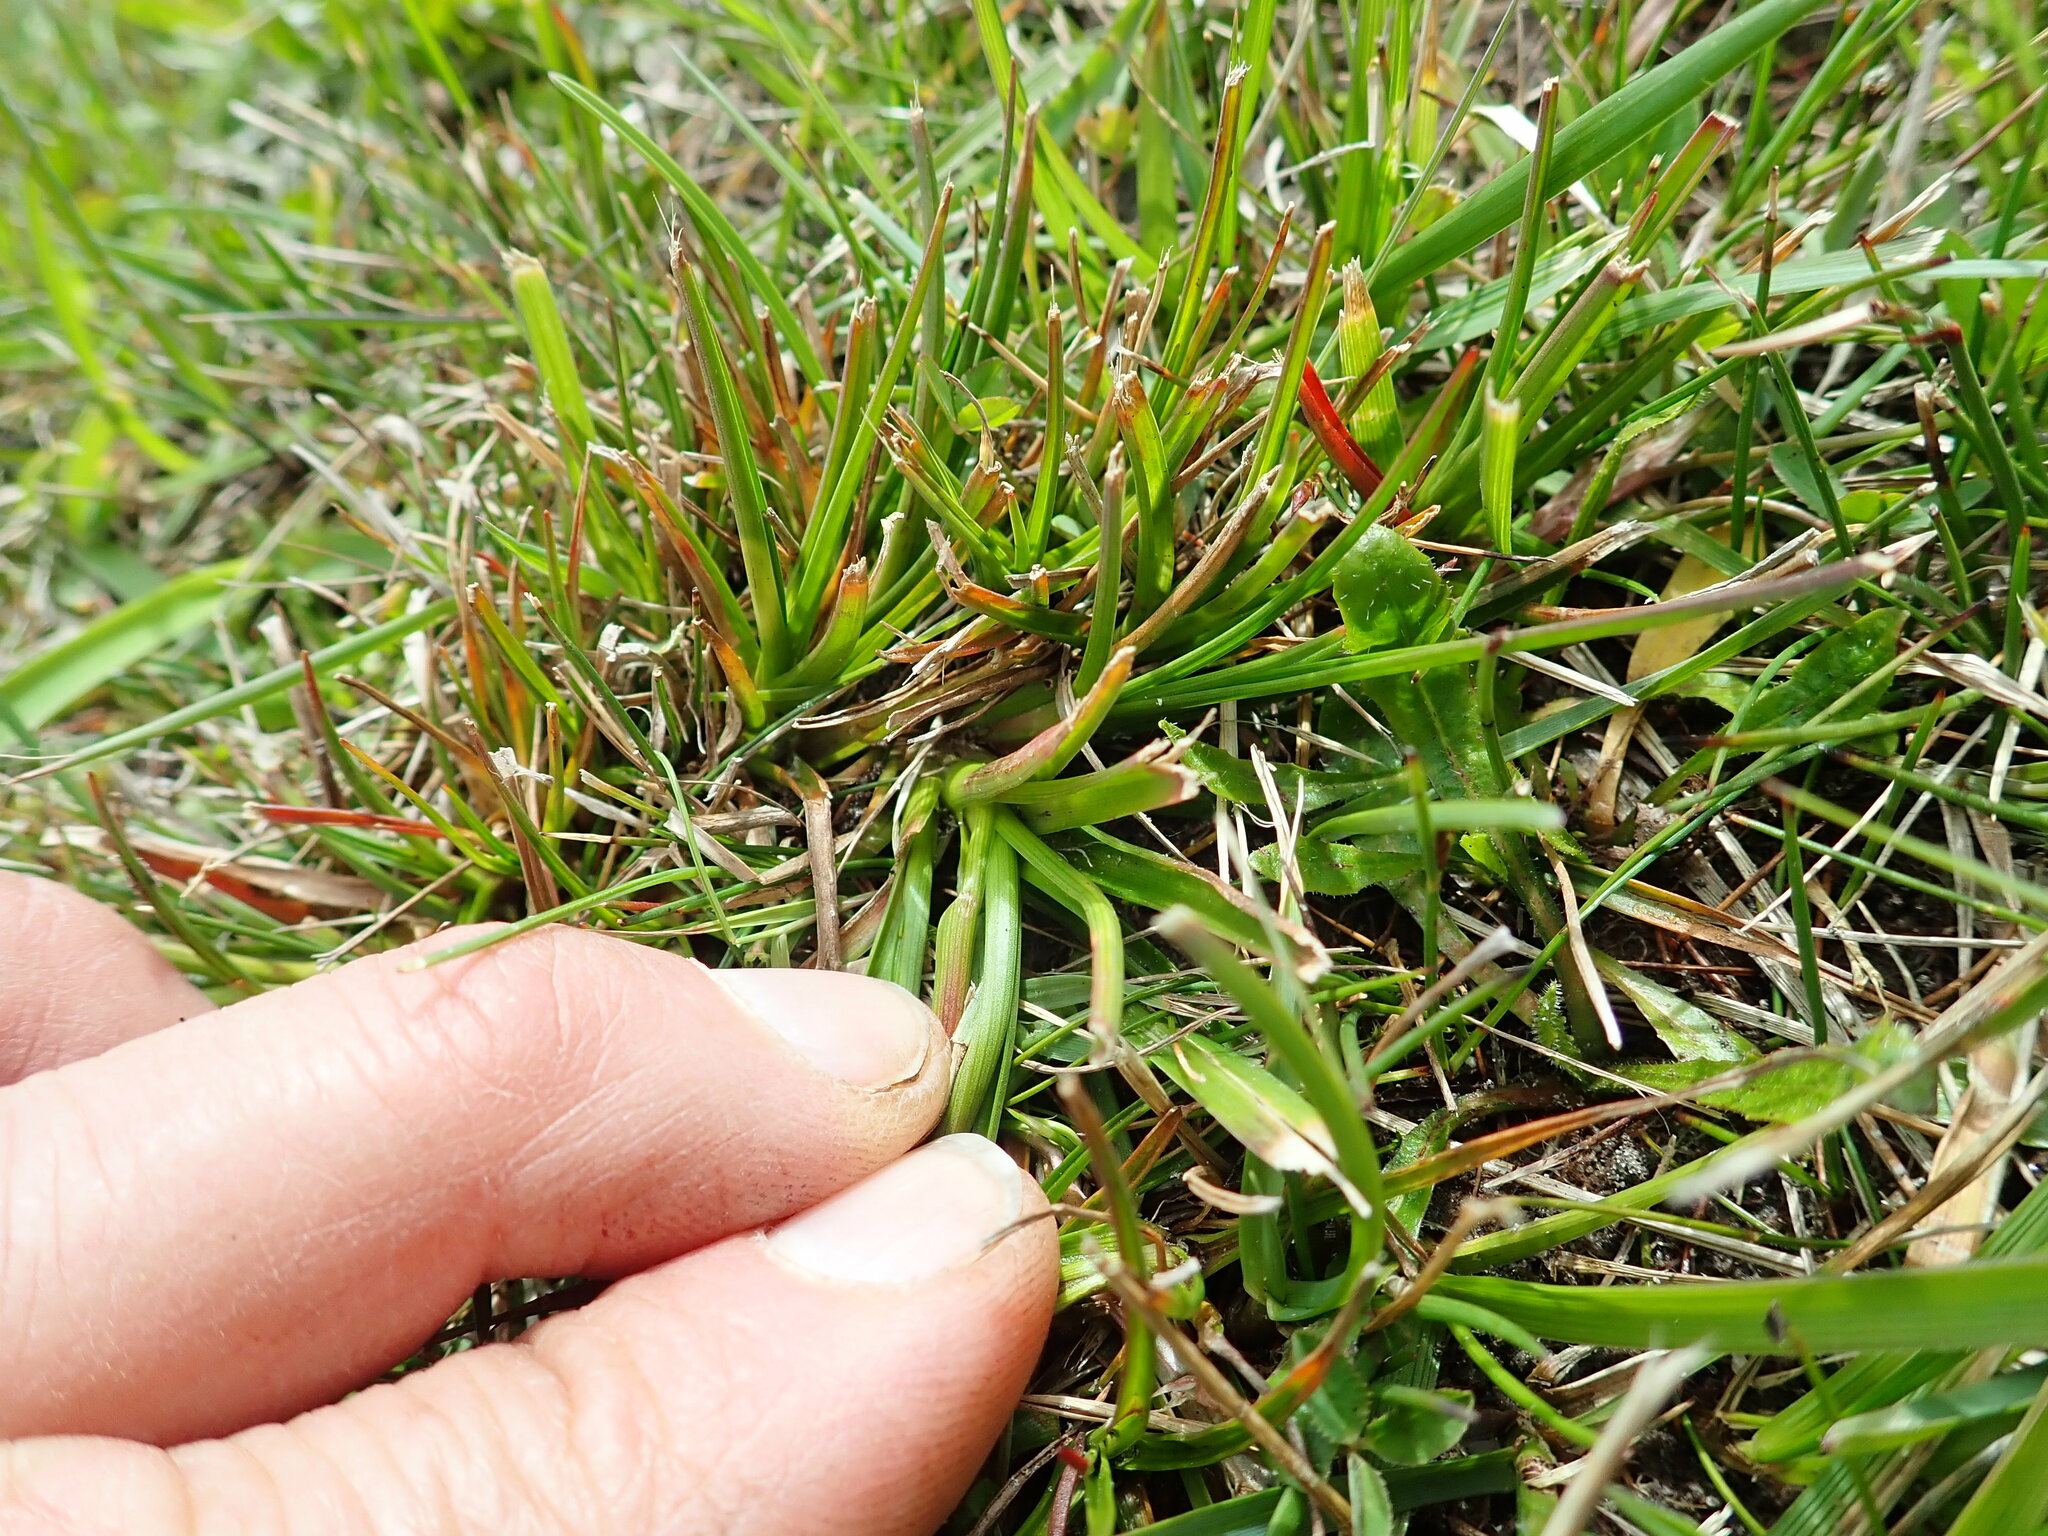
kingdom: Plantae
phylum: Tracheophyta
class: Liliopsida
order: Poales
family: Juncaceae
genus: Juncus
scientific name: Juncus caespiticius
